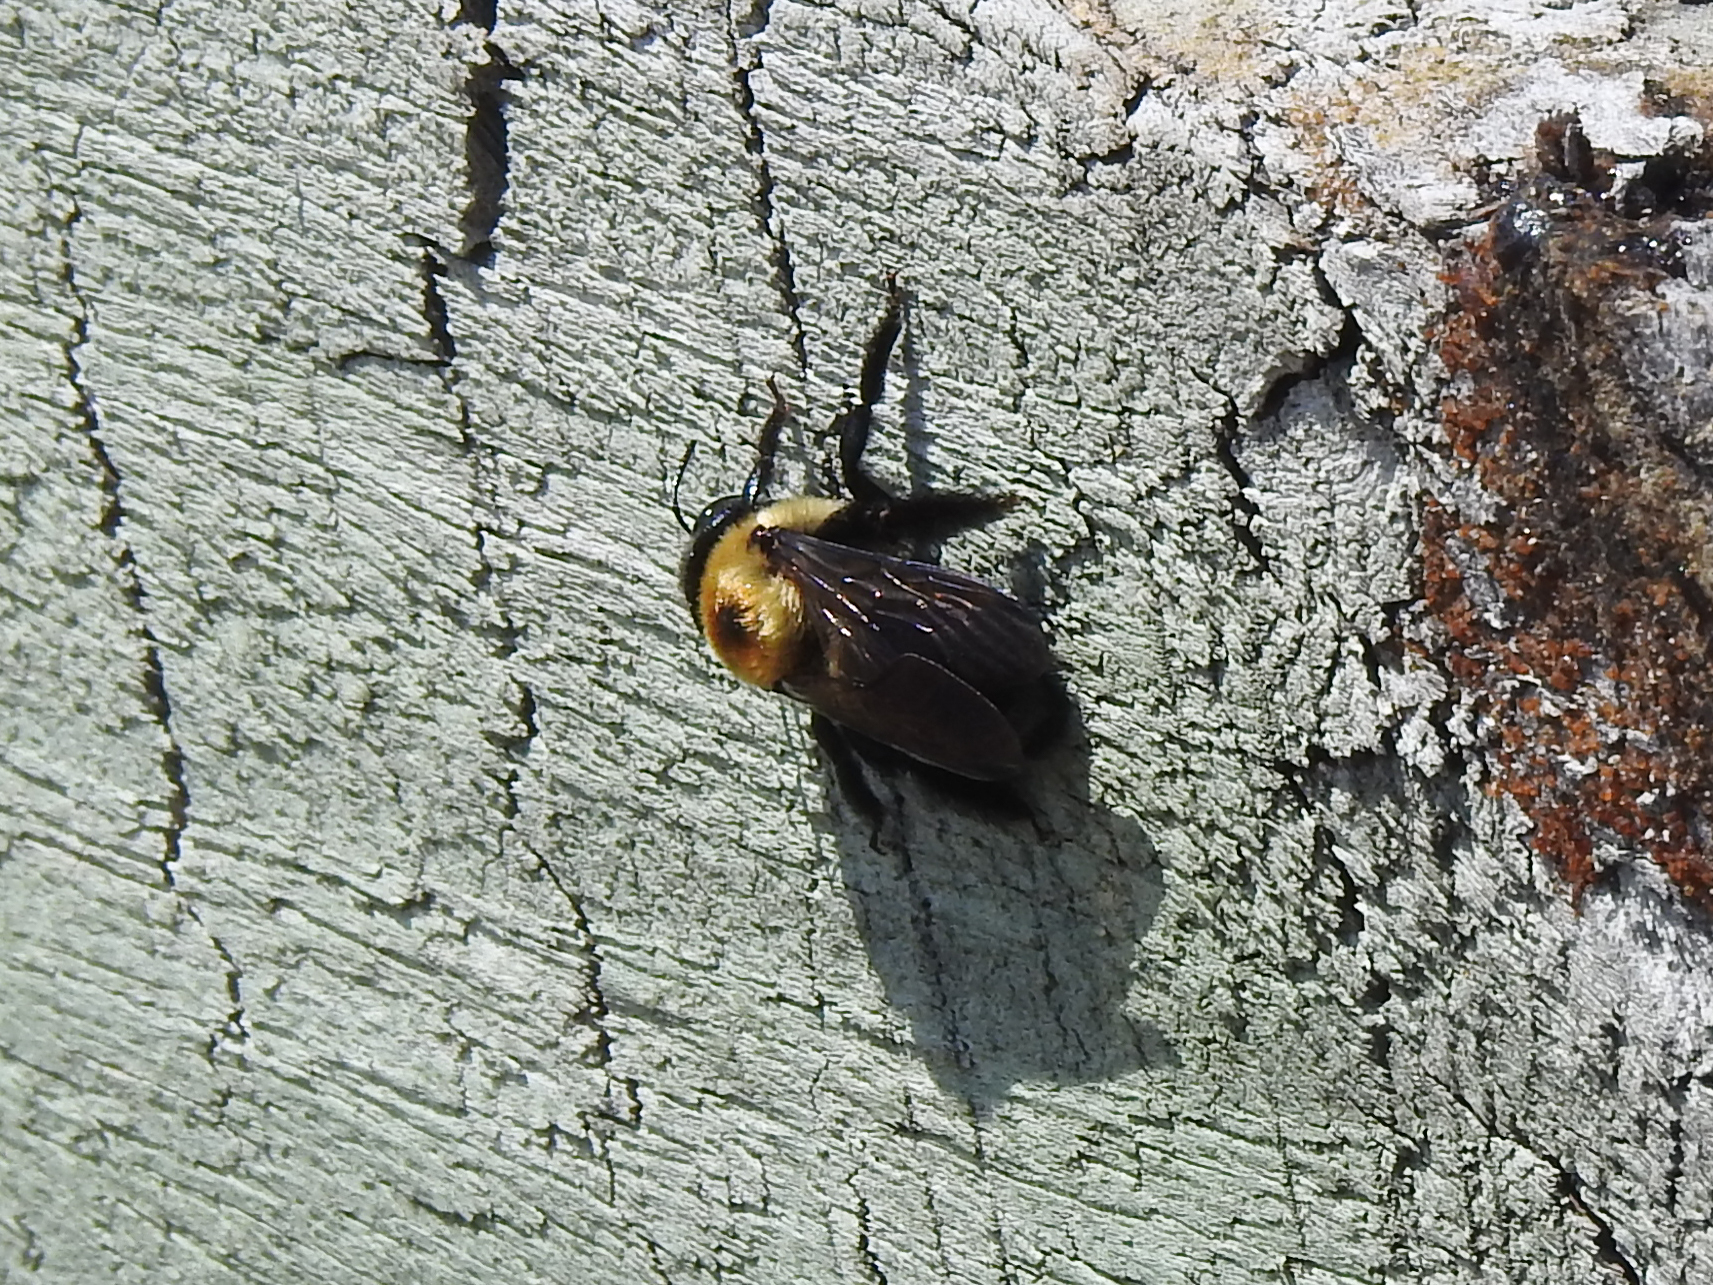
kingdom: Animalia
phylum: Arthropoda
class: Insecta
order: Hymenoptera
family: Apidae
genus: Xylocopa
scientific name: Xylocopa virginica
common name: Carpenter bee
